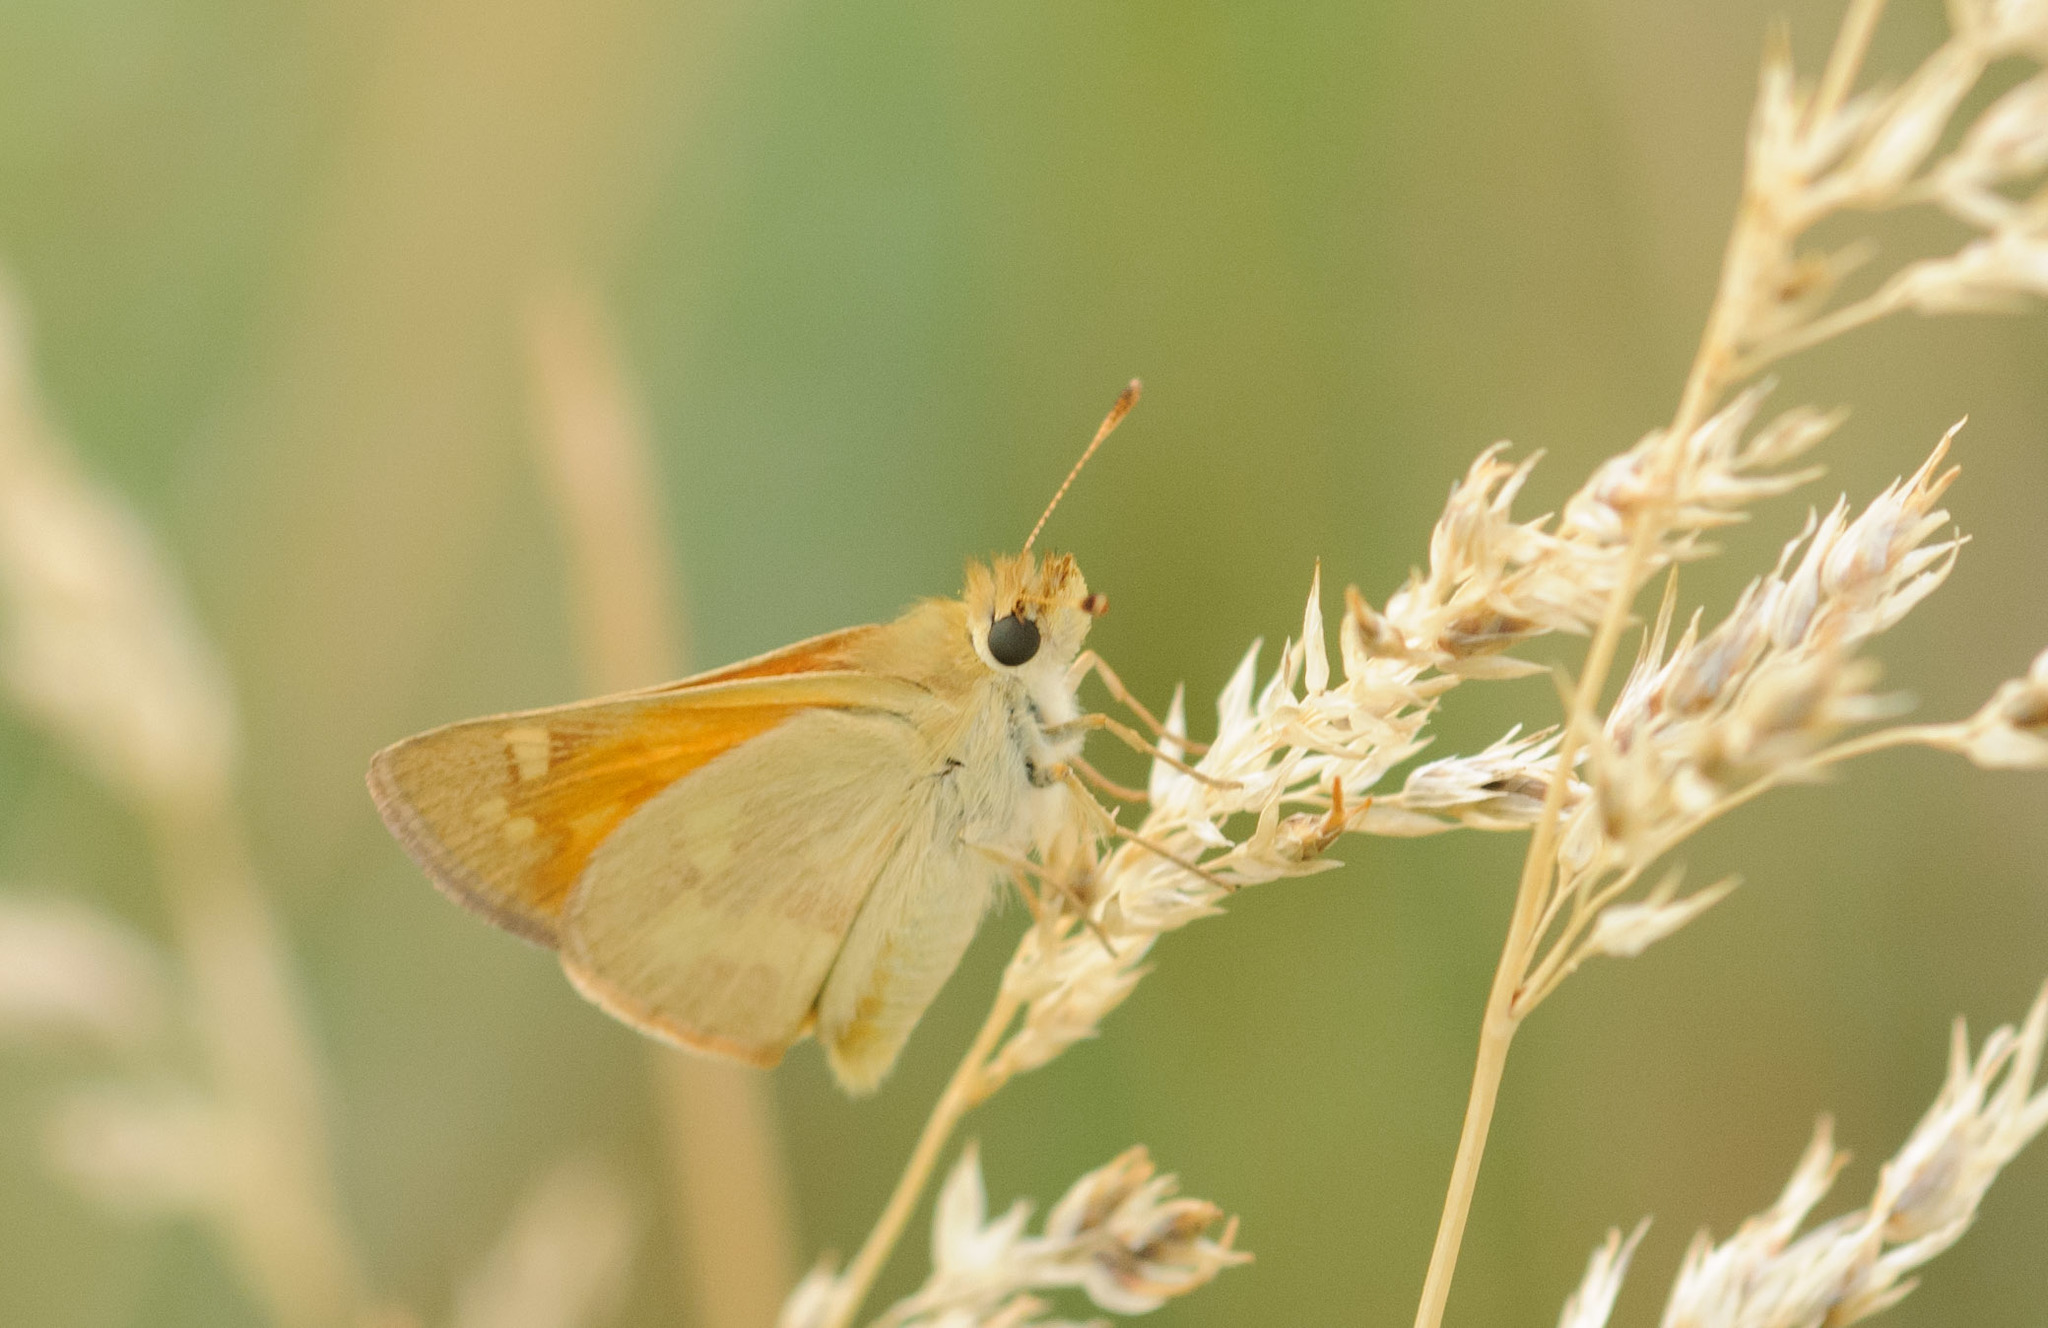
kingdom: Animalia
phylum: Arthropoda
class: Insecta
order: Lepidoptera
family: Hesperiidae
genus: Ochlodes
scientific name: Ochlodes sylvanoides
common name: Woodland skipper
